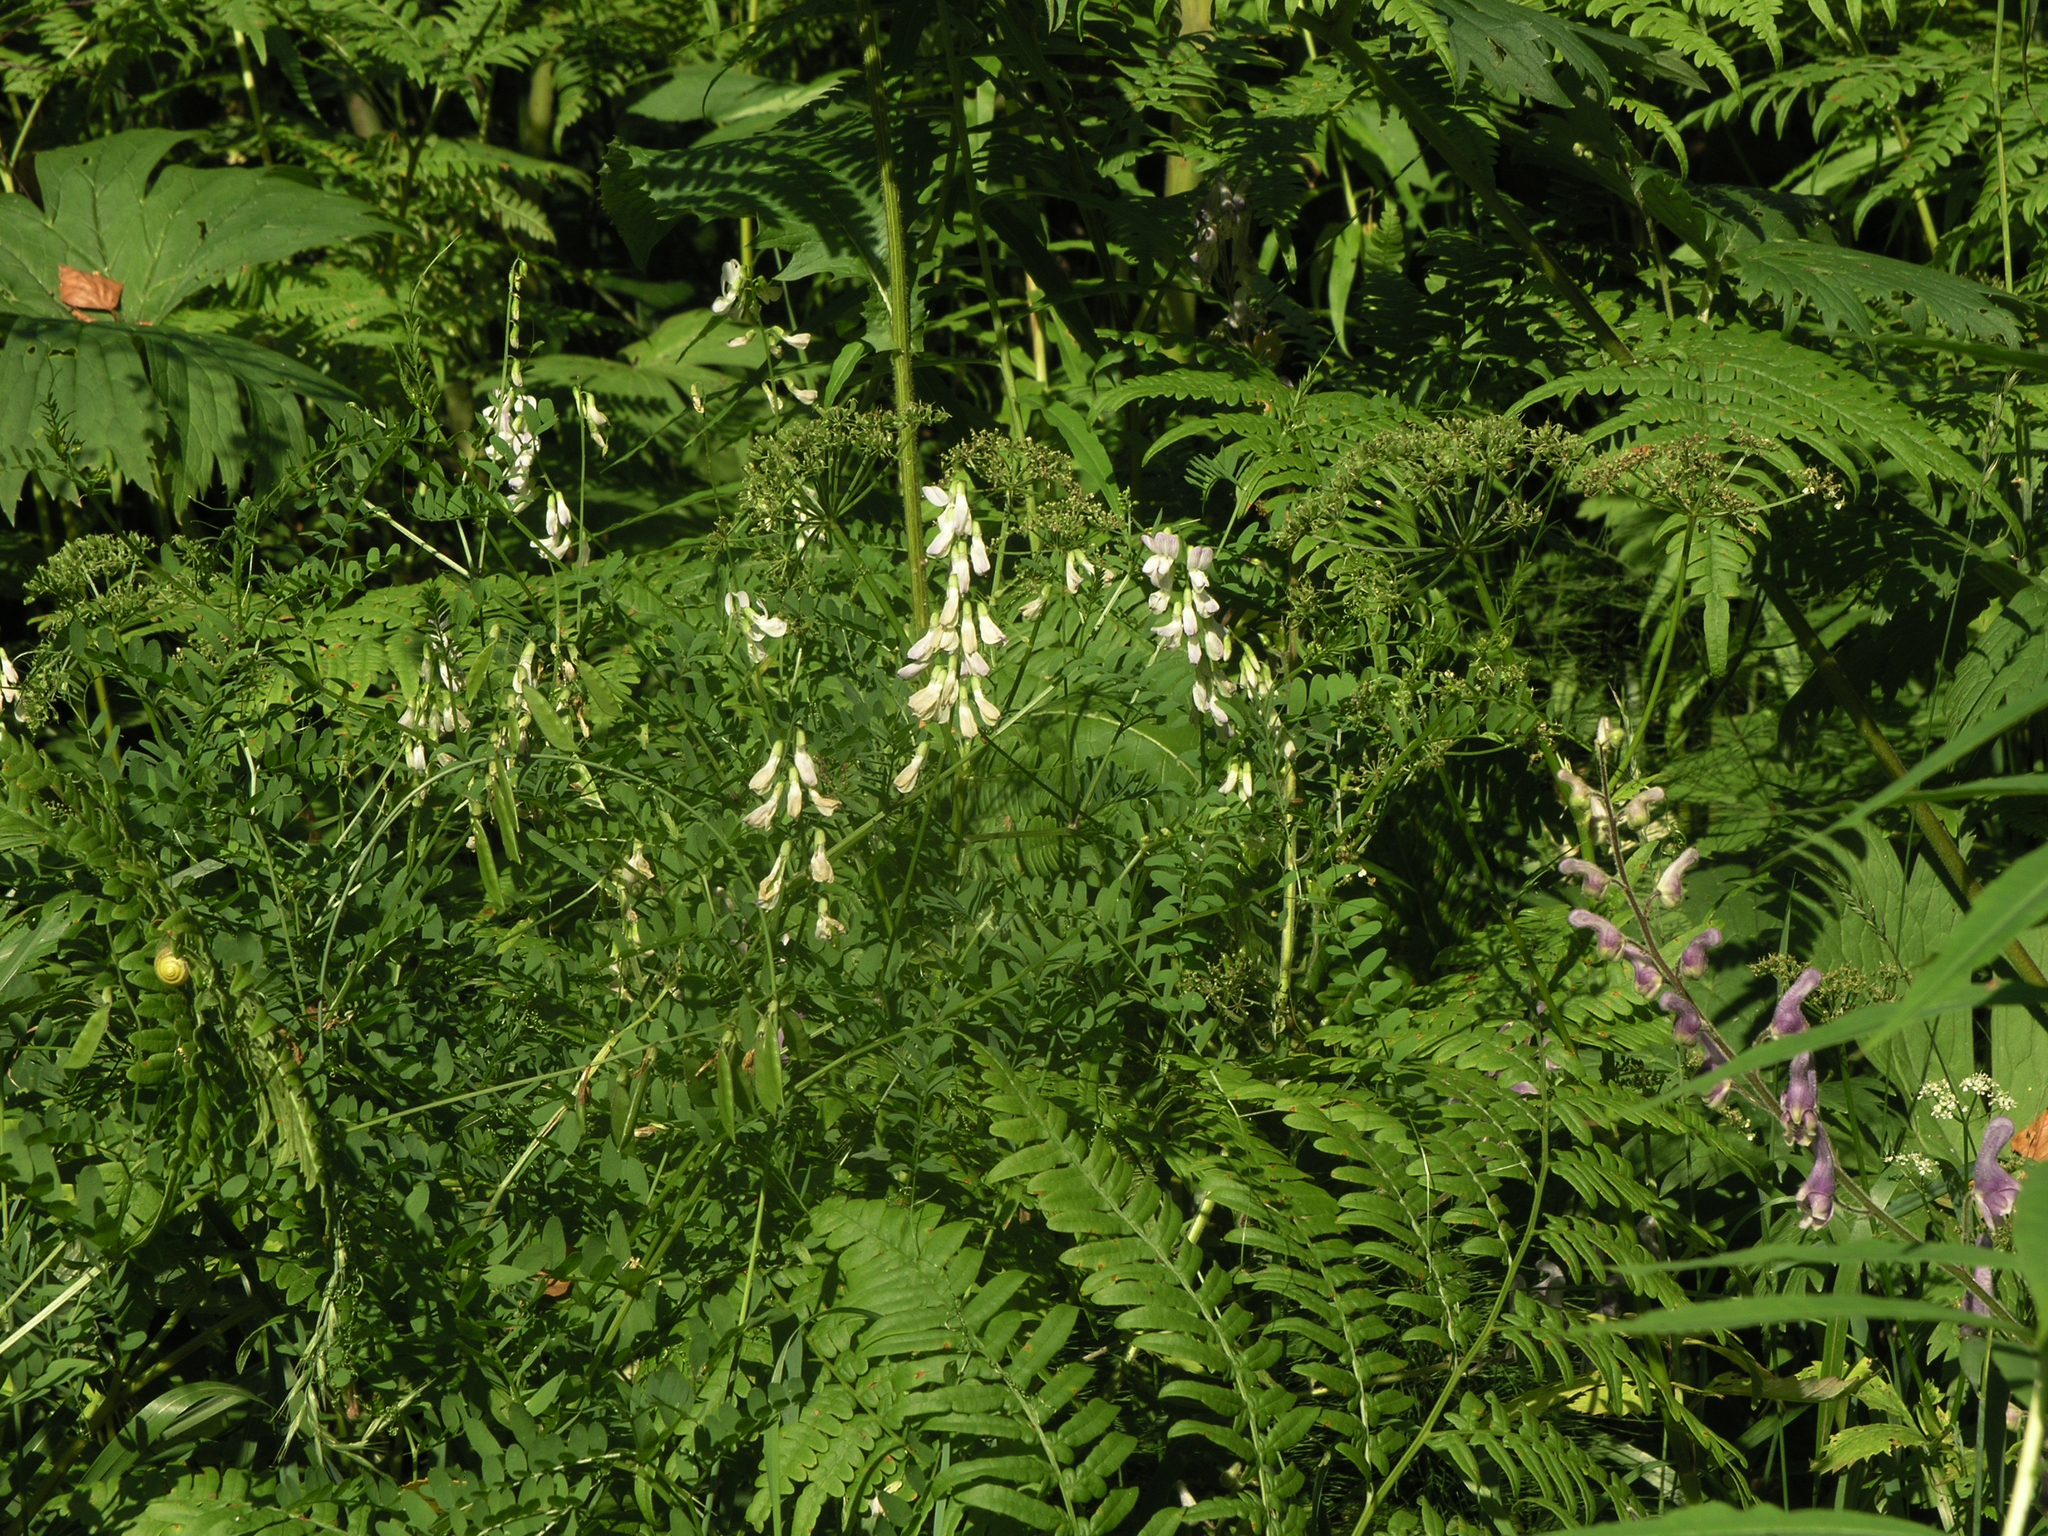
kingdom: Plantae
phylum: Tracheophyta
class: Magnoliopsida
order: Fabales
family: Fabaceae
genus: Vicia
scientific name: Vicia sylvatica
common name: Wood vetch
